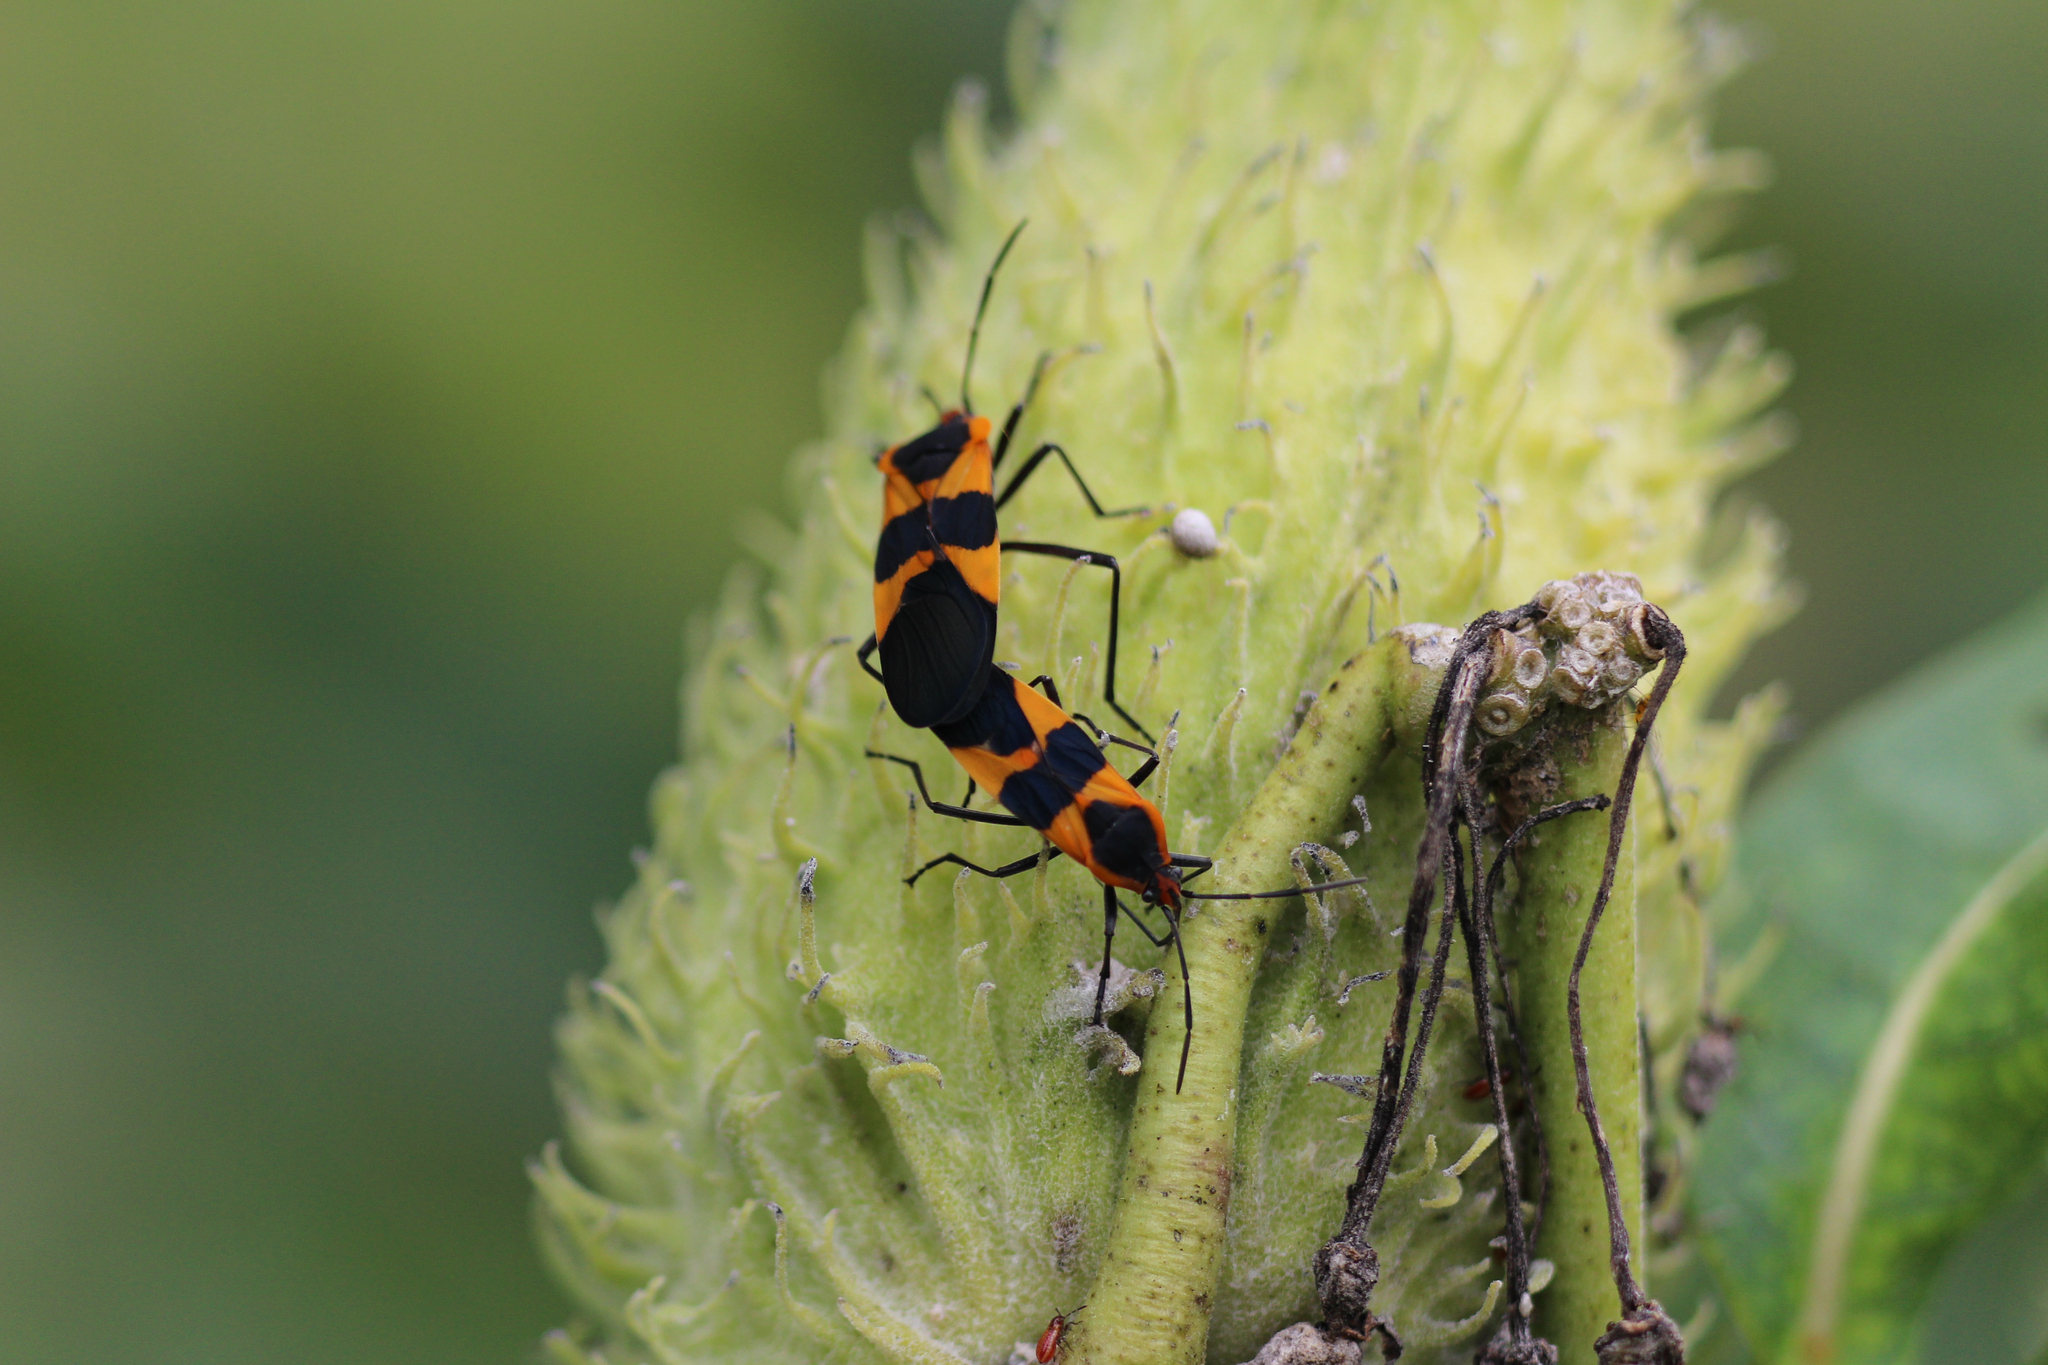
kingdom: Animalia
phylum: Arthropoda
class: Insecta
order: Hemiptera
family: Lygaeidae
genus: Oncopeltus
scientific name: Oncopeltus fasciatus
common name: Large milkweed bug
